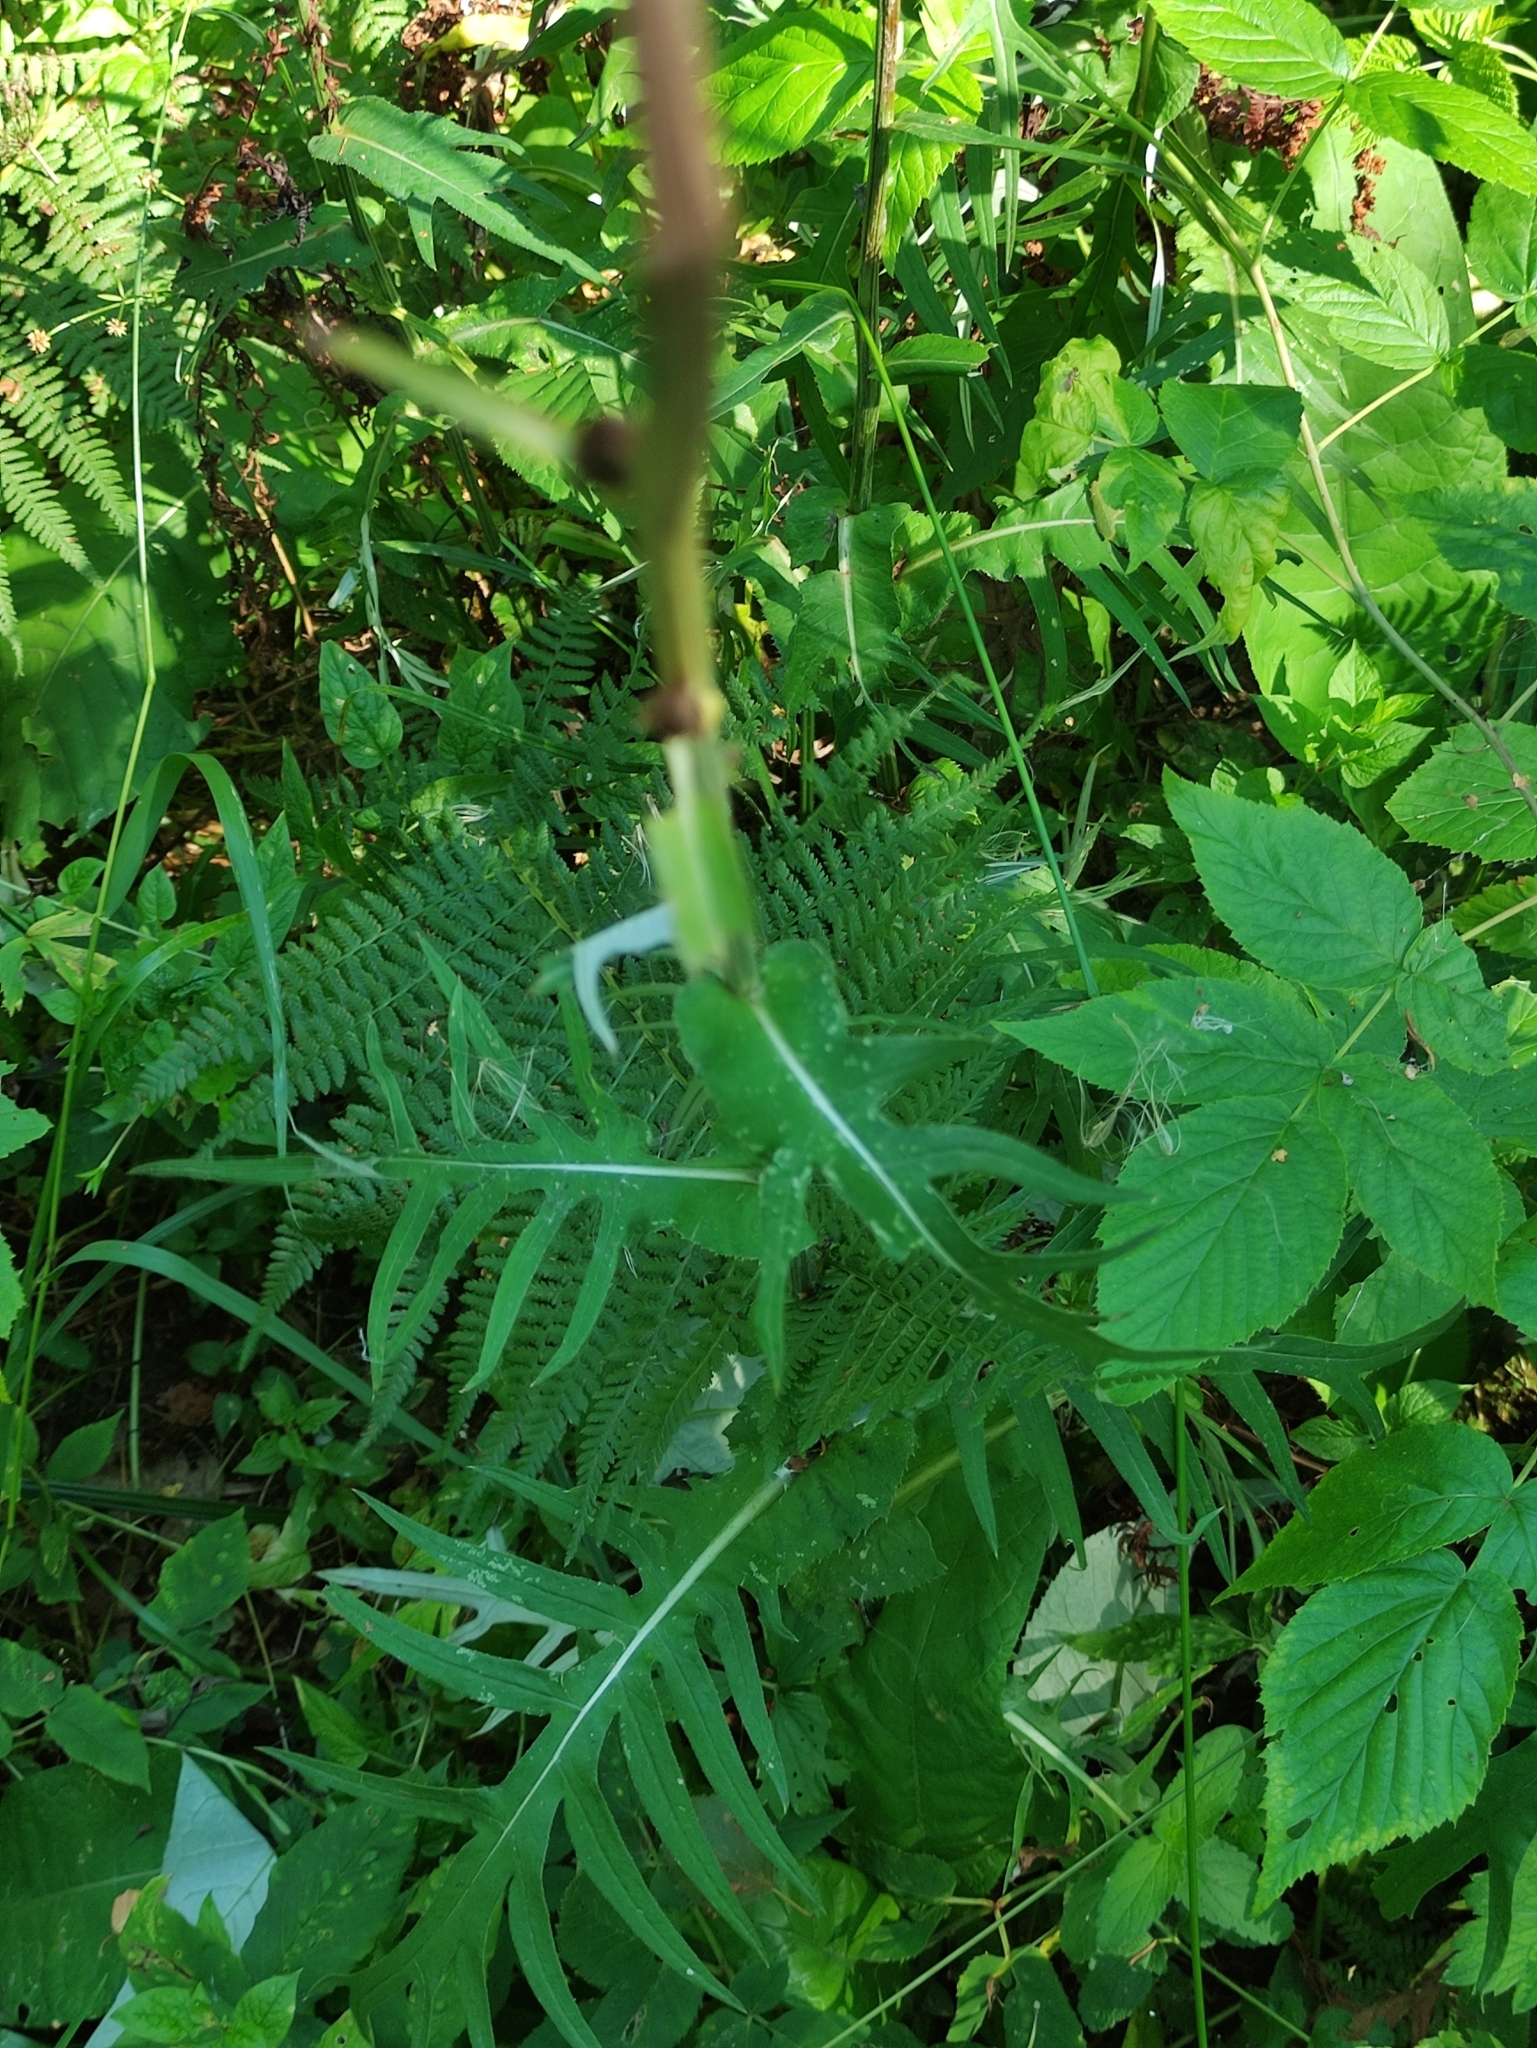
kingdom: Plantae
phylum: Tracheophyta
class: Magnoliopsida
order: Asterales
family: Asteraceae
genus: Cirsium
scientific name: Cirsium heterophyllum
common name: Melancholy thistle
